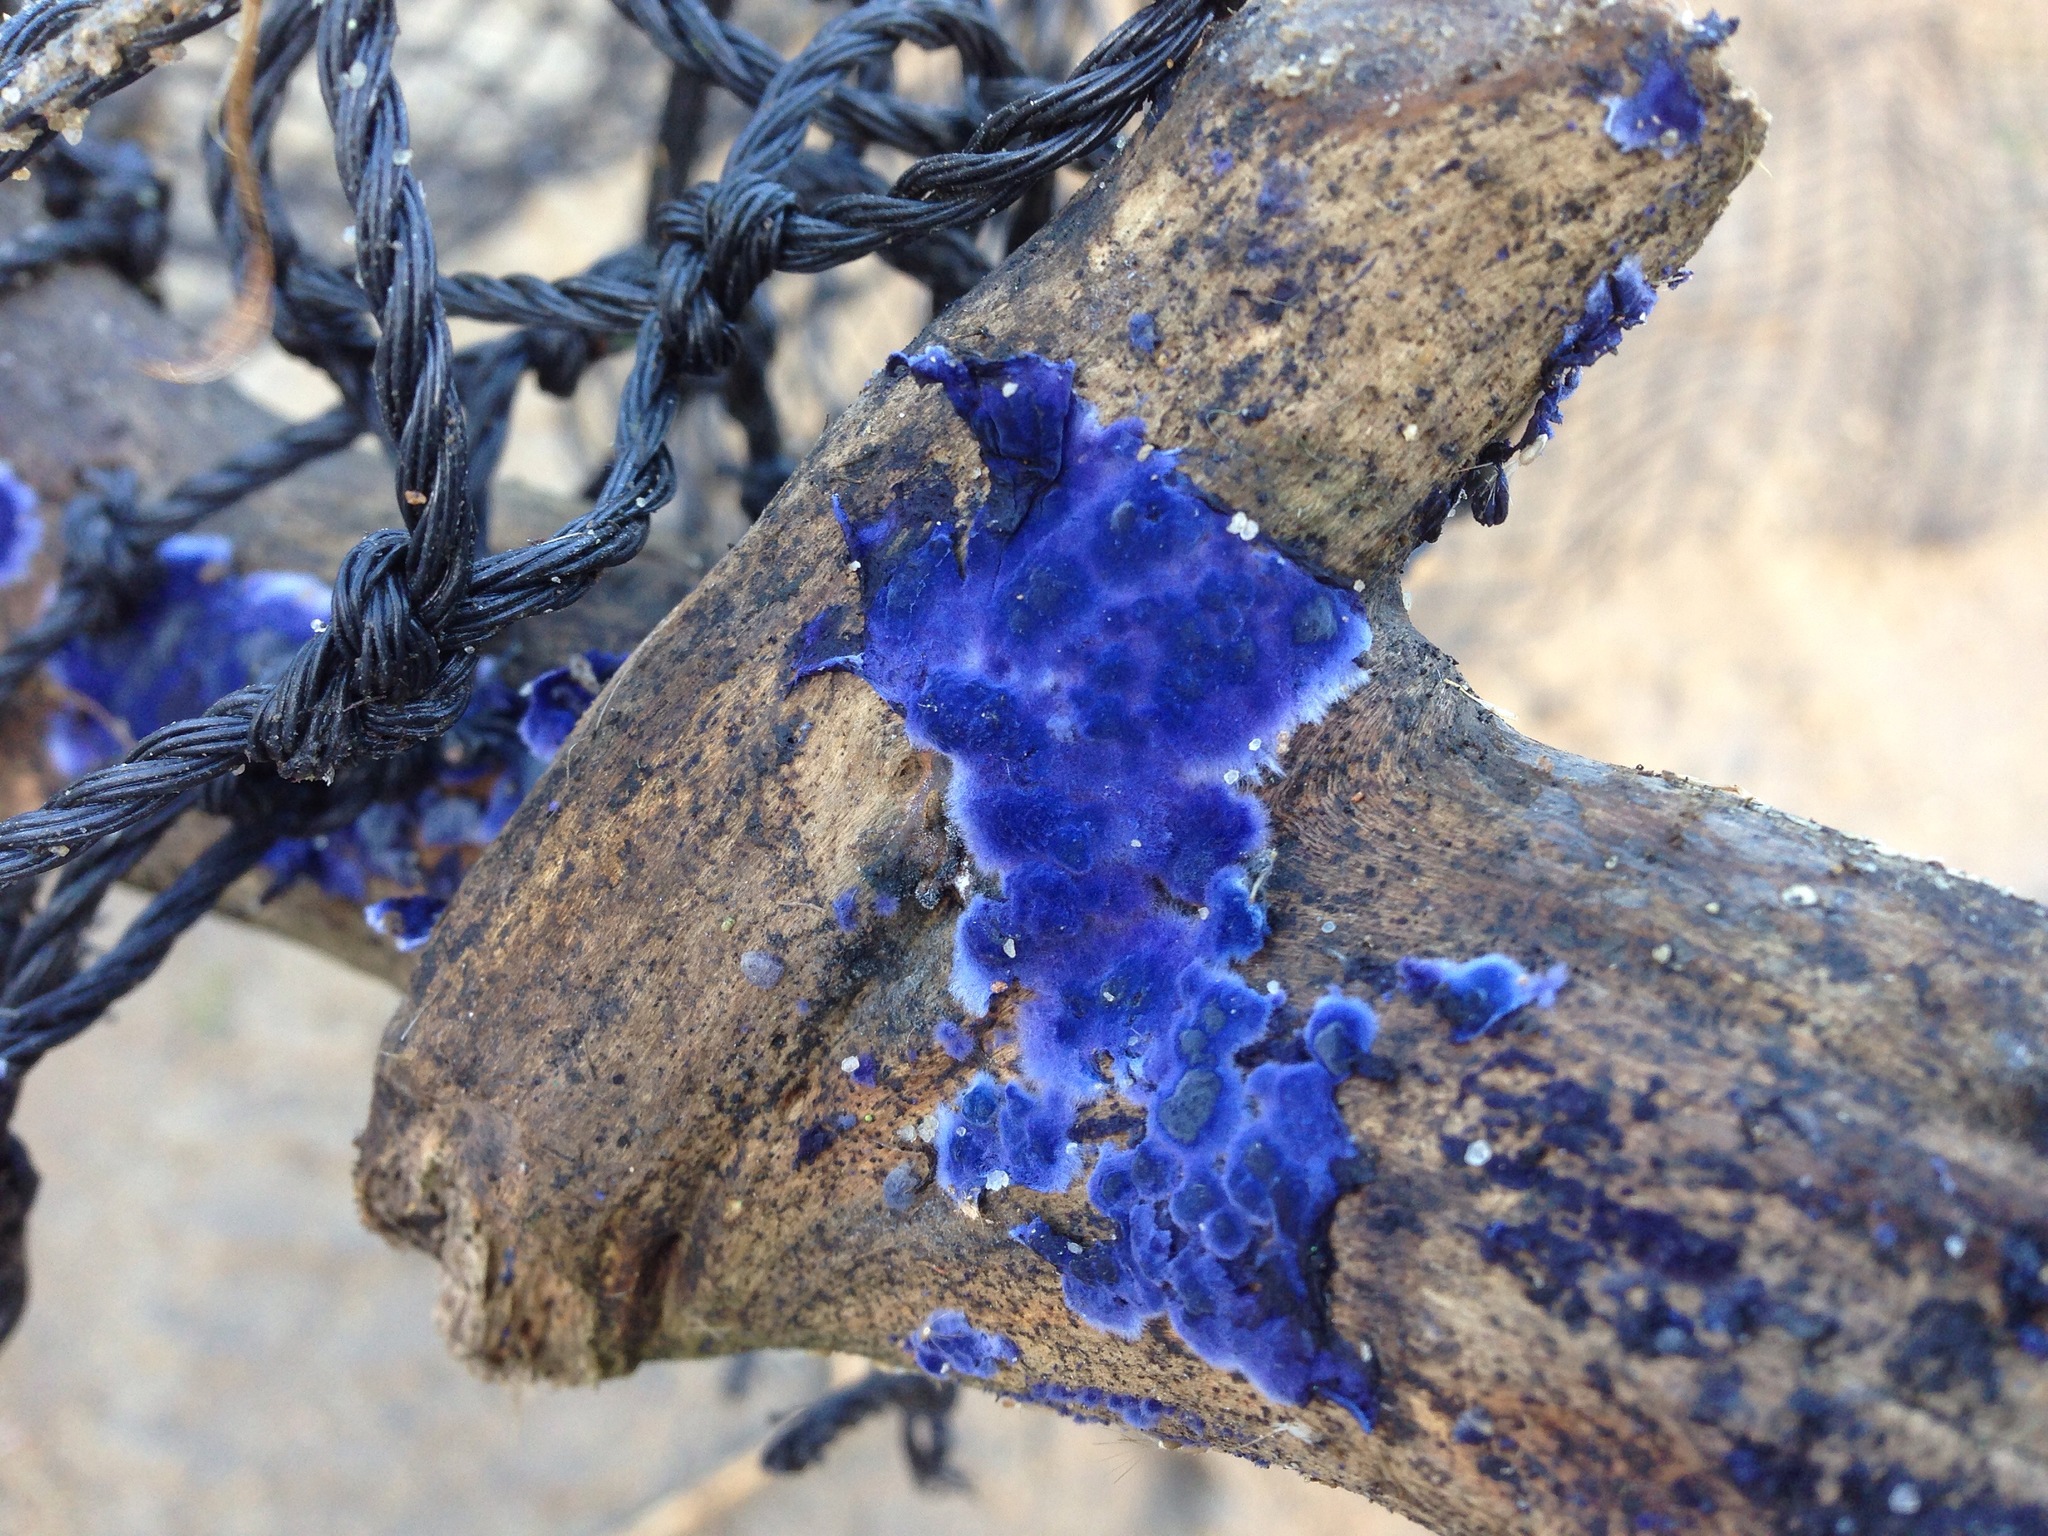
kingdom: Fungi
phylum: Basidiomycota
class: Agaricomycetes
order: Polyporales
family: Phanerochaetaceae
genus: Terana
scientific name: Terana coerulea
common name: Cobalt crust
